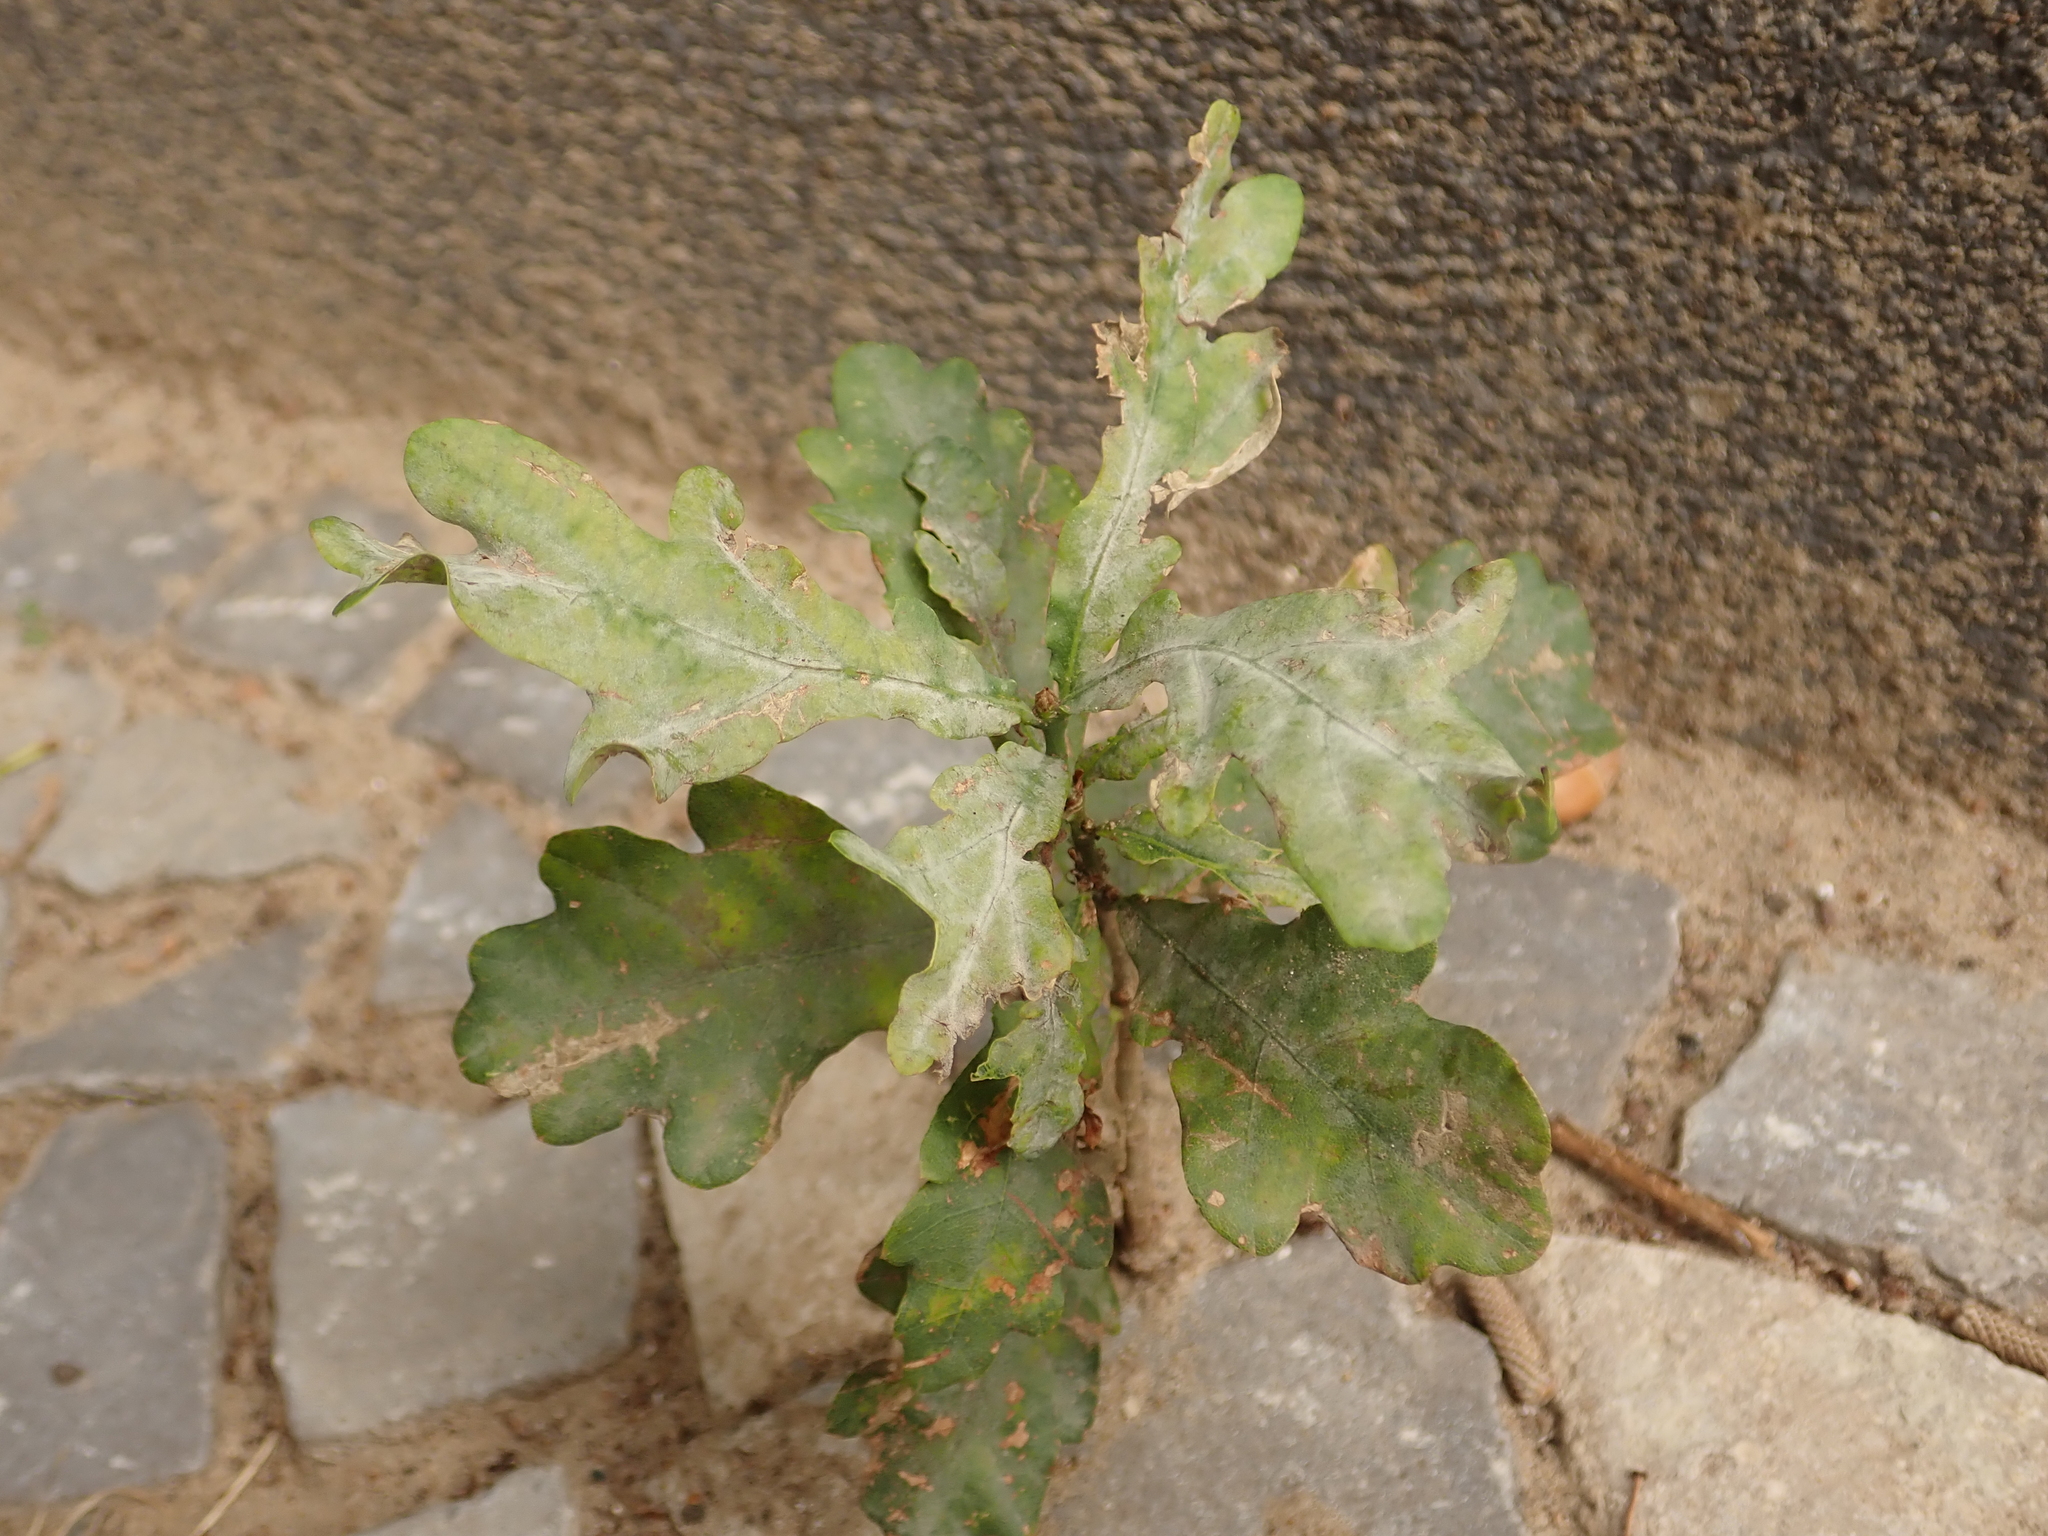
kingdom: Plantae
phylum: Tracheophyta
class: Magnoliopsida
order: Fagales
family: Fagaceae
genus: Quercus
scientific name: Quercus robur
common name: Pedunculate oak
